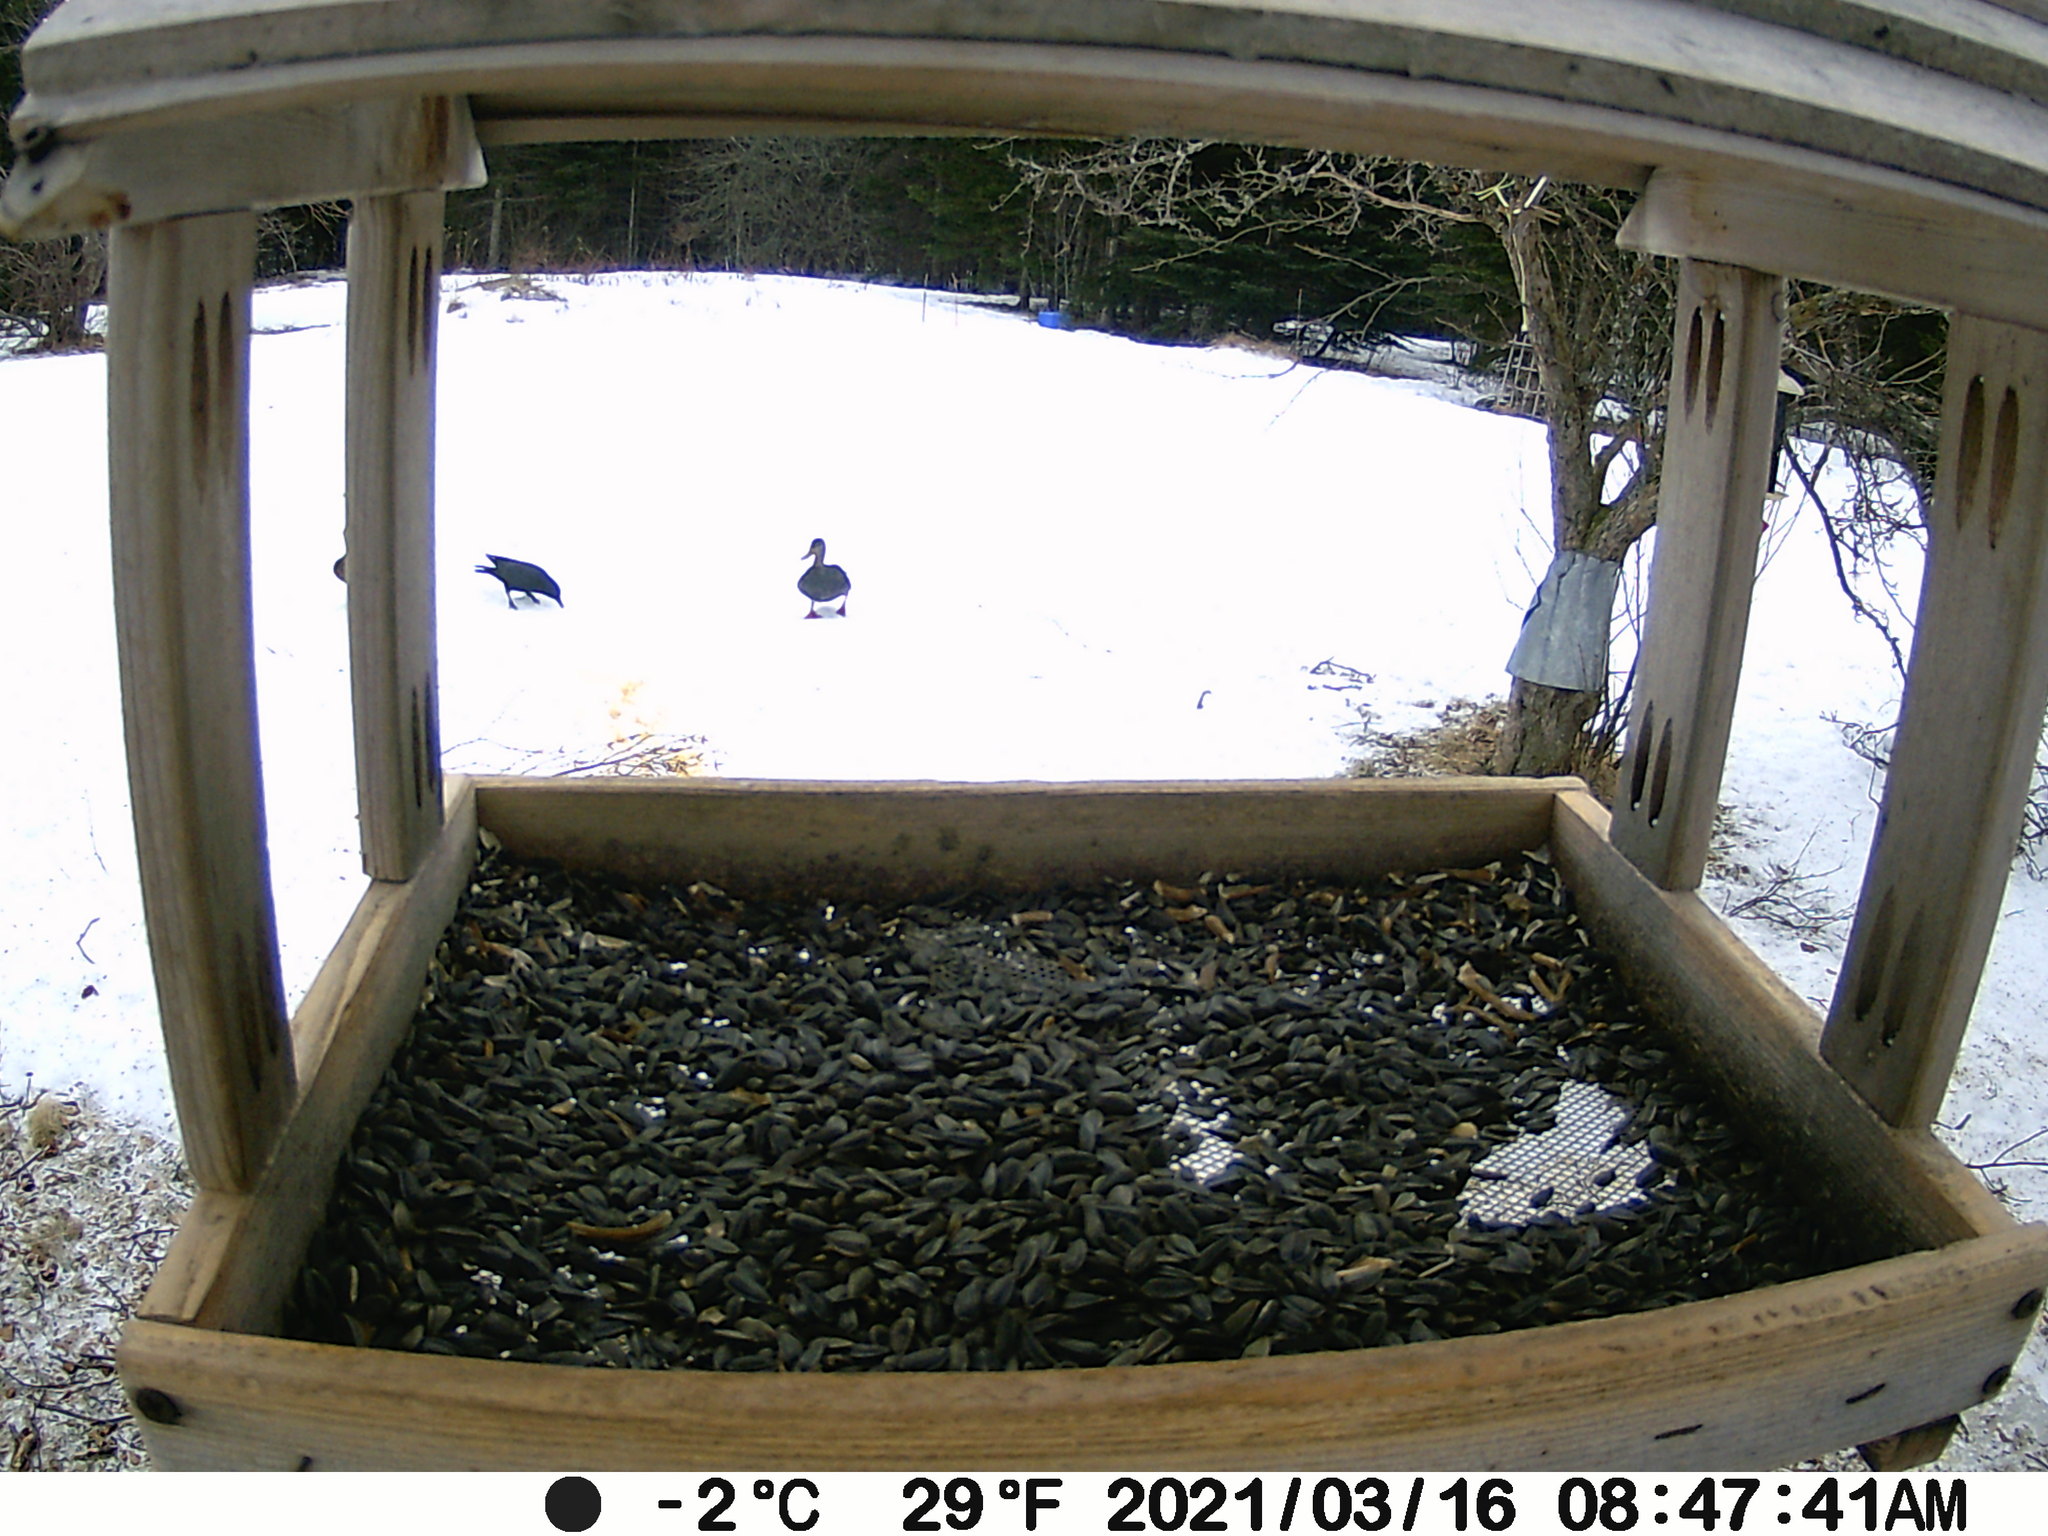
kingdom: Animalia
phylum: Chordata
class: Aves
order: Anseriformes
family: Anatidae
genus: Anas
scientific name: Anas rubripes
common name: American black duck
